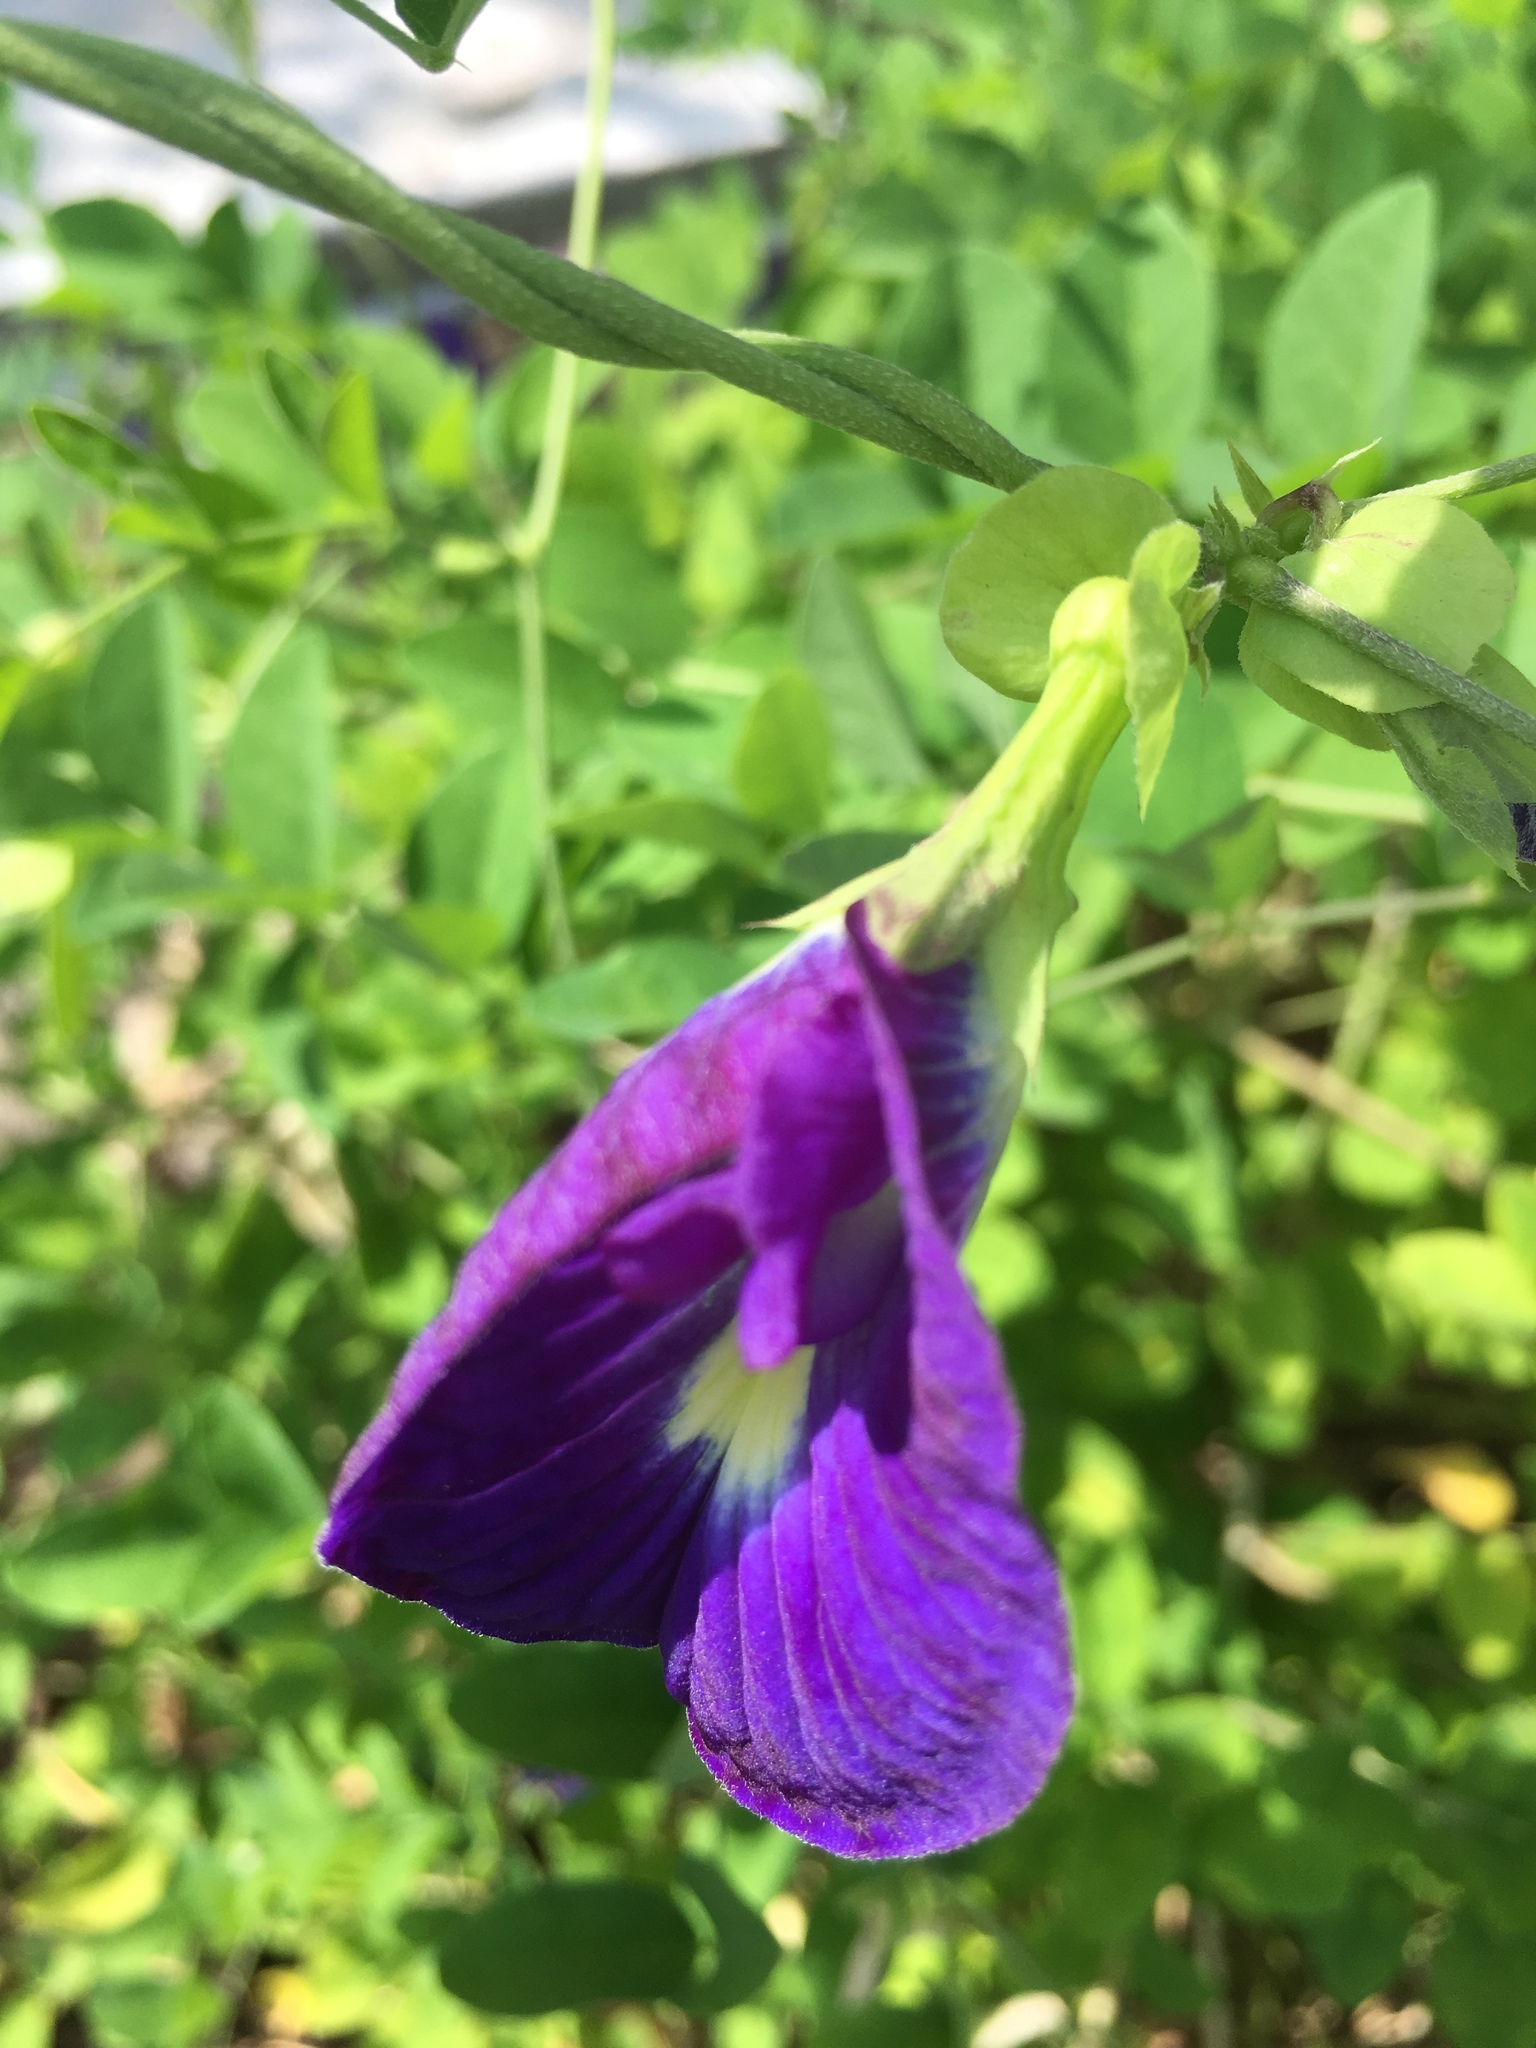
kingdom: Plantae
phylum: Tracheophyta
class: Magnoliopsida
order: Fabales
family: Fabaceae
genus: Clitoria
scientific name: Clitoria ternatea
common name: Asian pigeonwings
